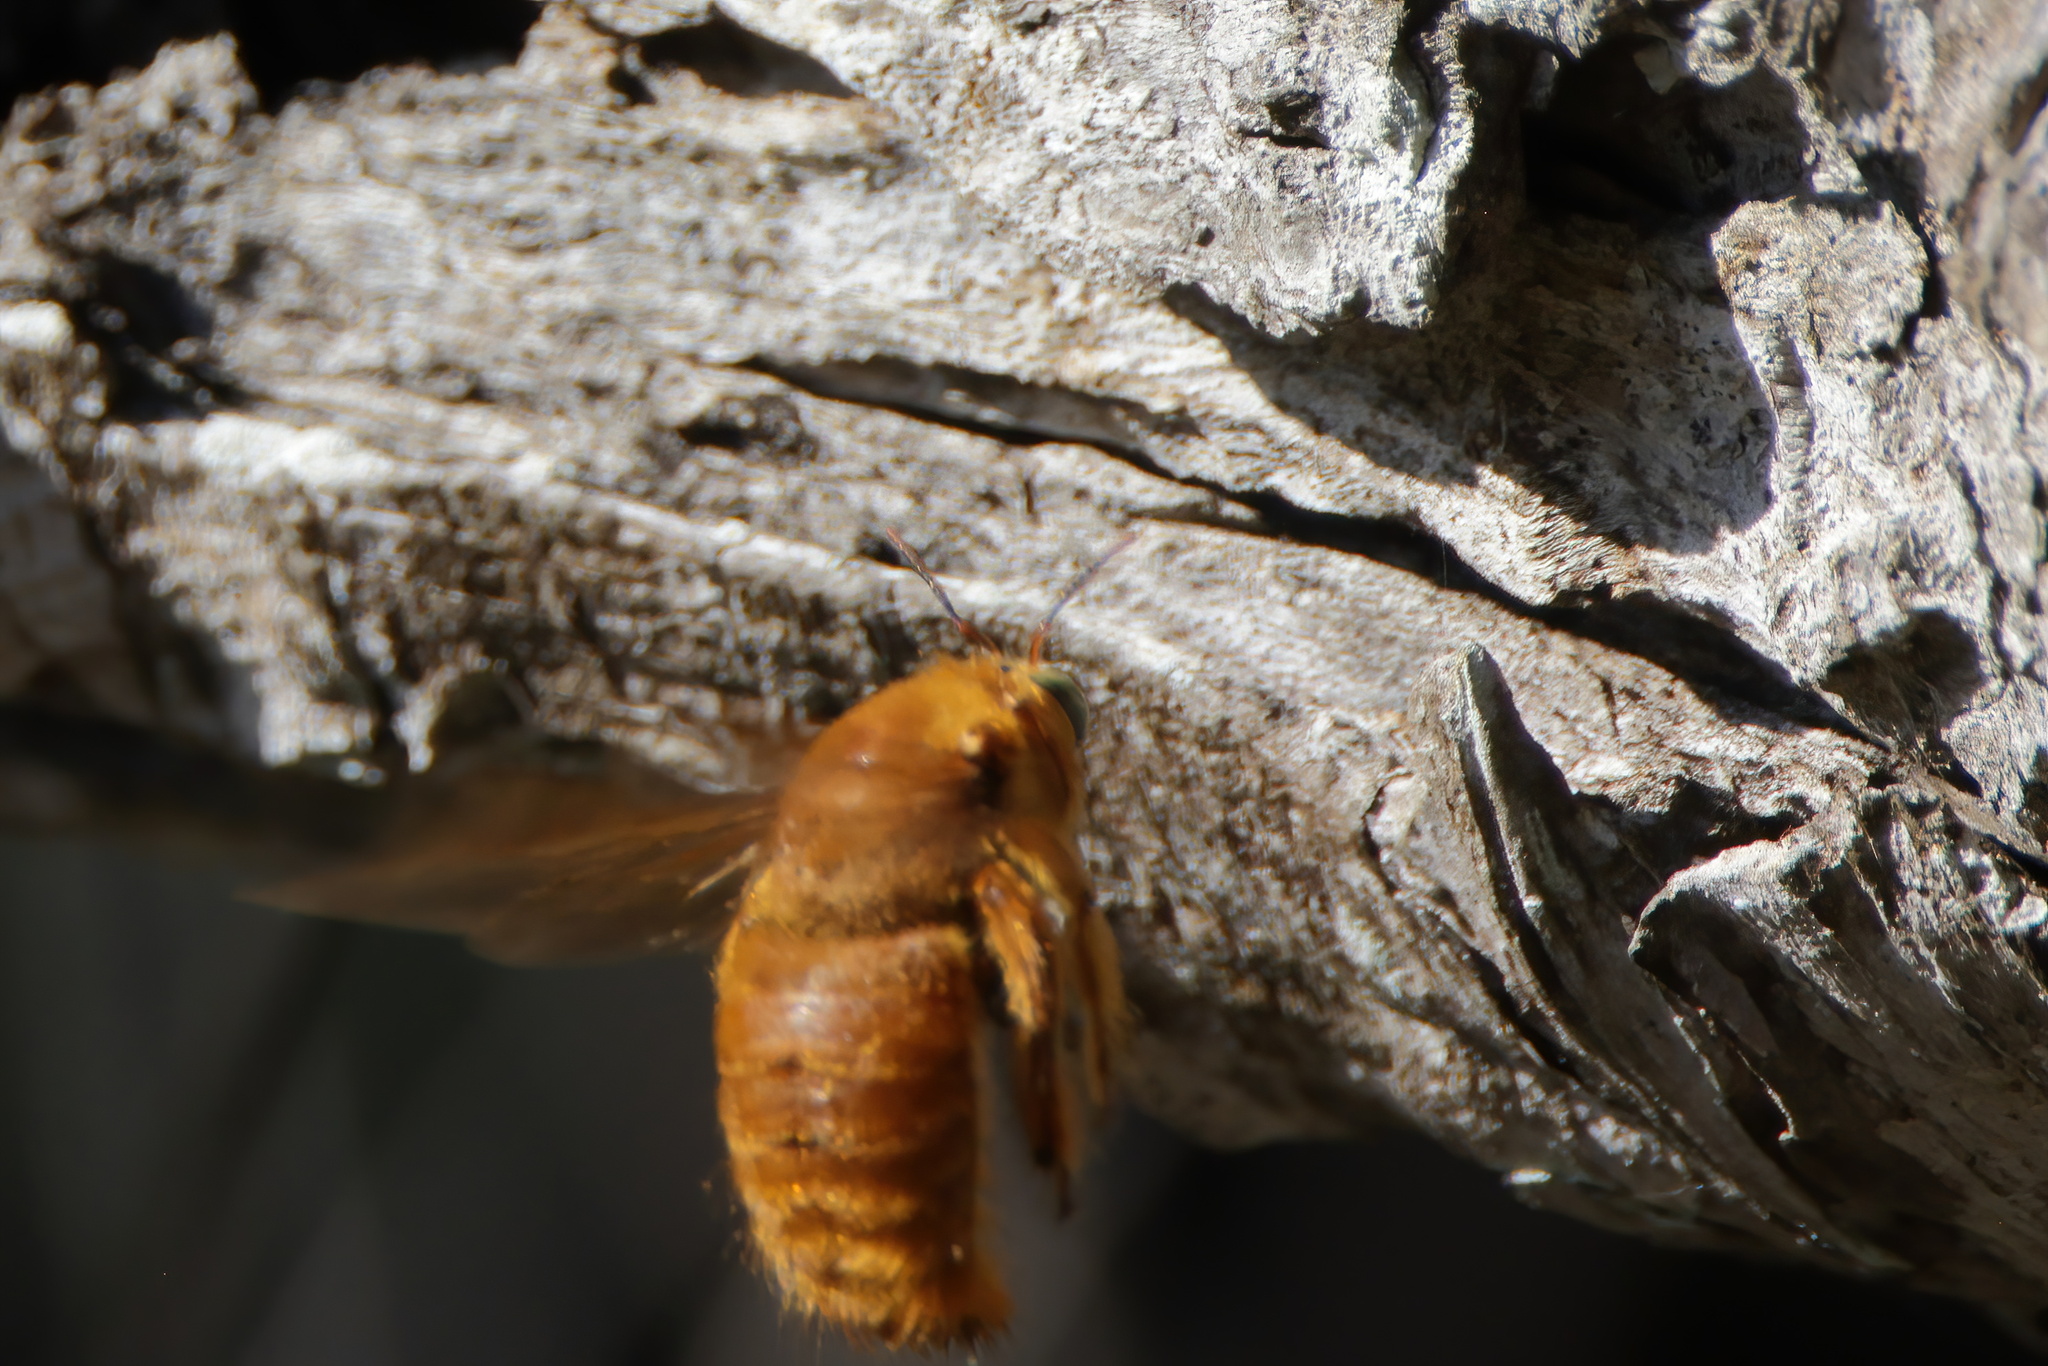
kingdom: Animalia
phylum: Arthropoda
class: Insecta
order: Hymenoptera
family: Apidae
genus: Xylocopa
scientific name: Xylocopa griswoldi
